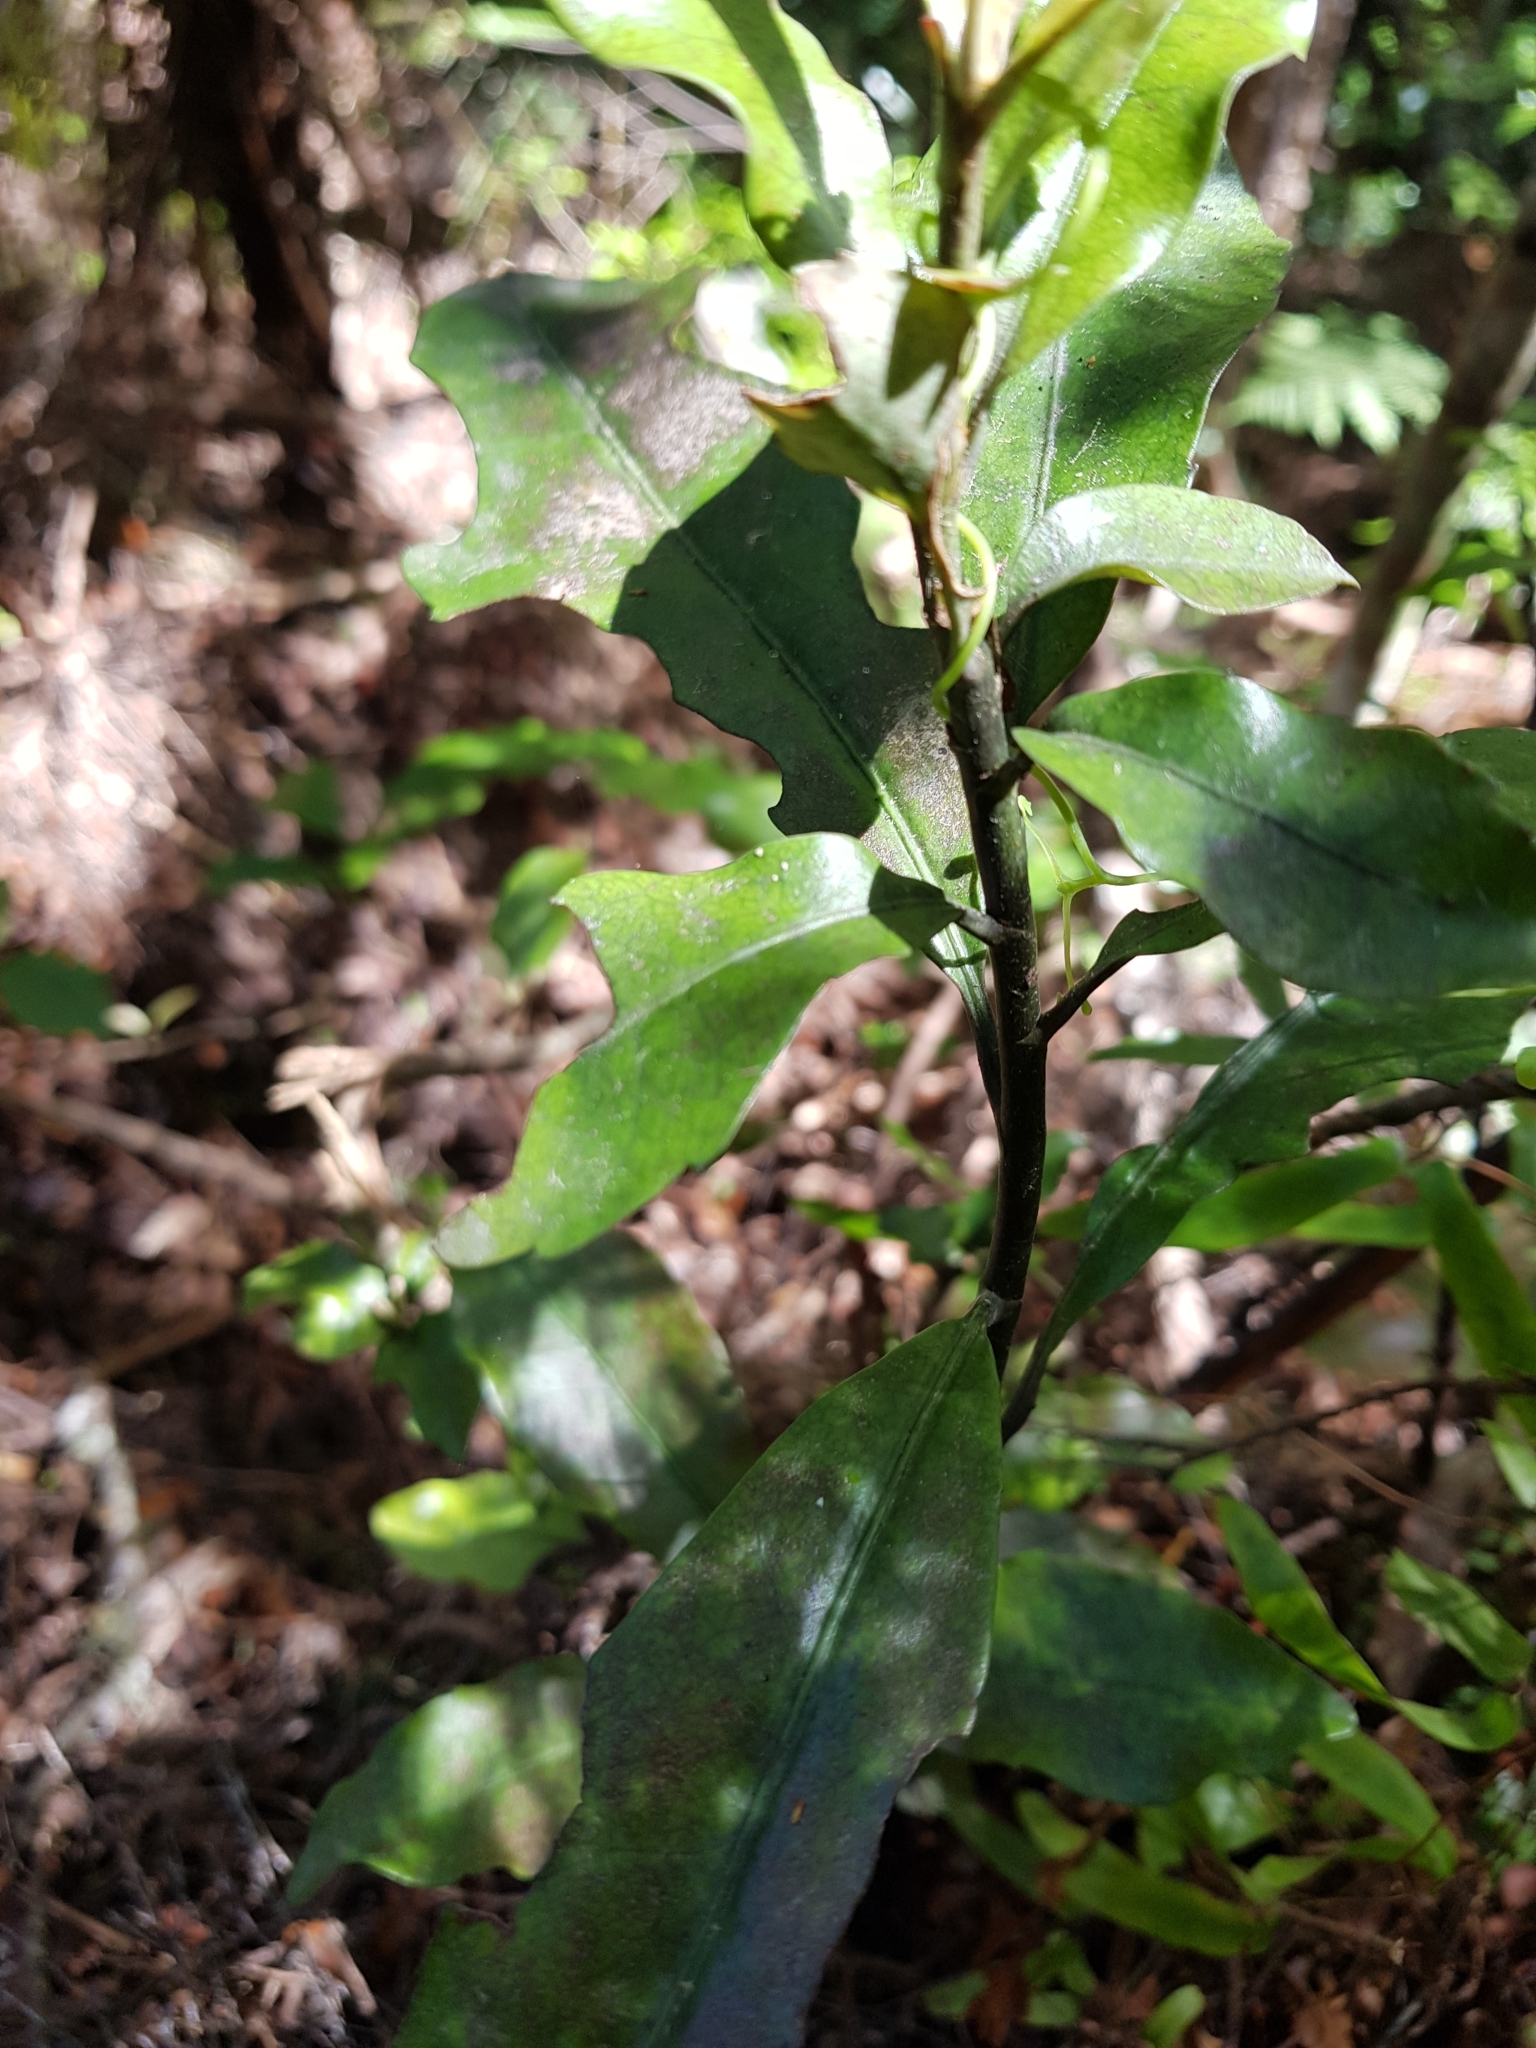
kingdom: Plantae
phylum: Tracheophyta
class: Magnoliopsida
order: Asterales
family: Alseuosmiaceae
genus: Alseuosmia
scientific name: Alseuosmia macrophylla
